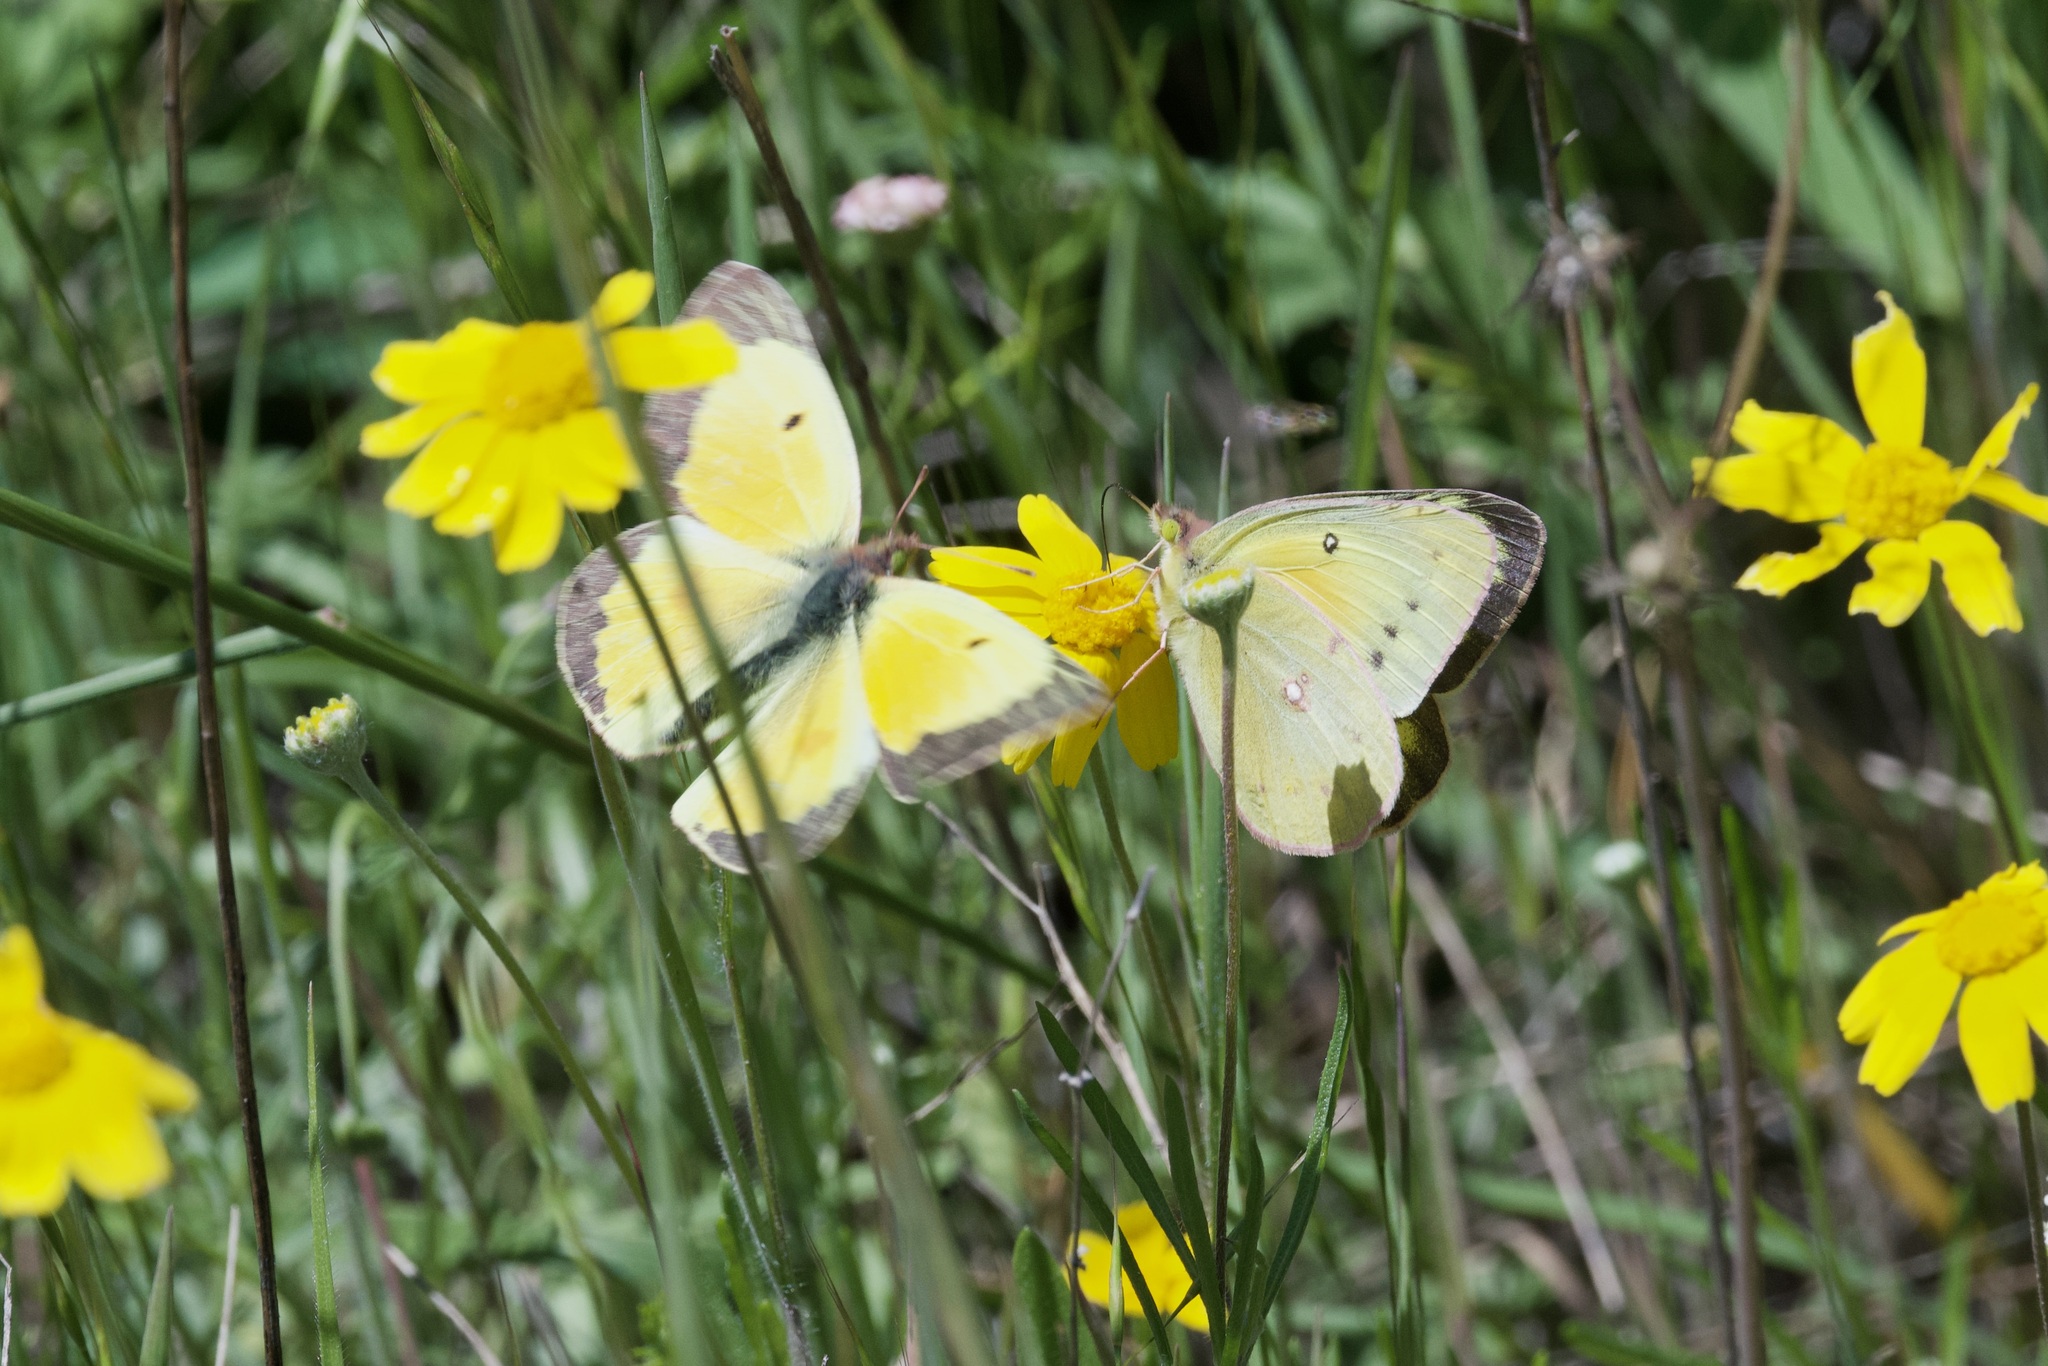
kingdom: Animalia
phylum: Arthropoda
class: Insecta
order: Lepidoptera
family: Pieridae
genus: Colias
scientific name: Colias eurytheme
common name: Alfalfa butterfly
